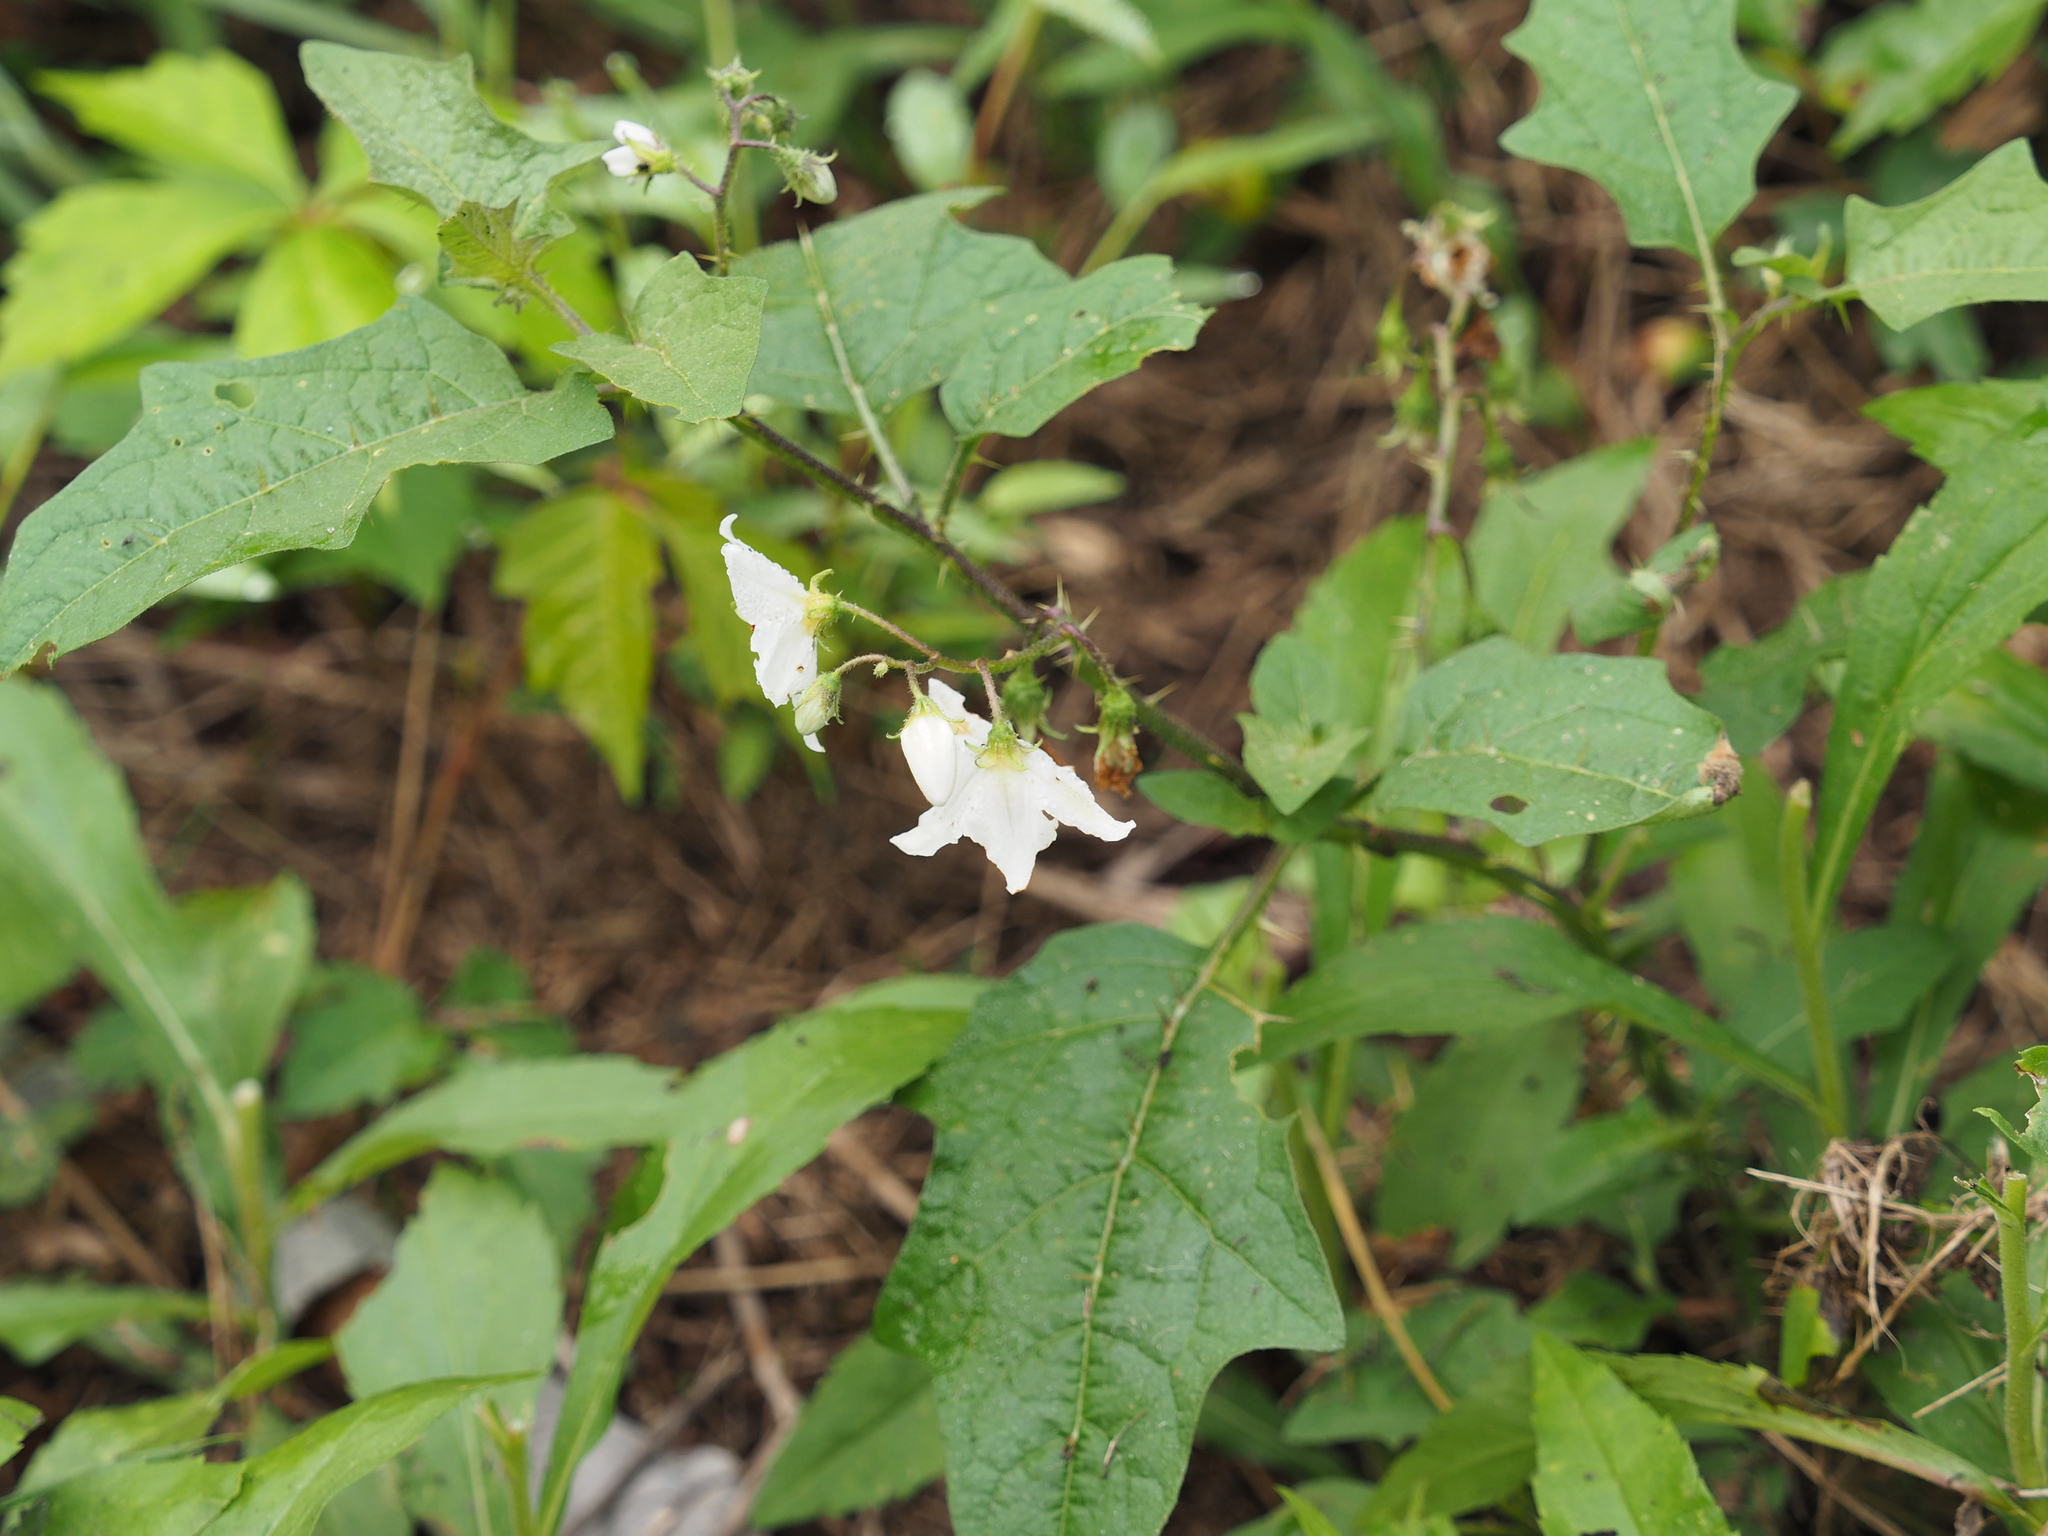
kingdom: Plantae
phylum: Tracheophyta
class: Magnoliopsida
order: Solanales
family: Solanaceae
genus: Solanum
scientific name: Solanum carolinense
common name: Horse-nettle
